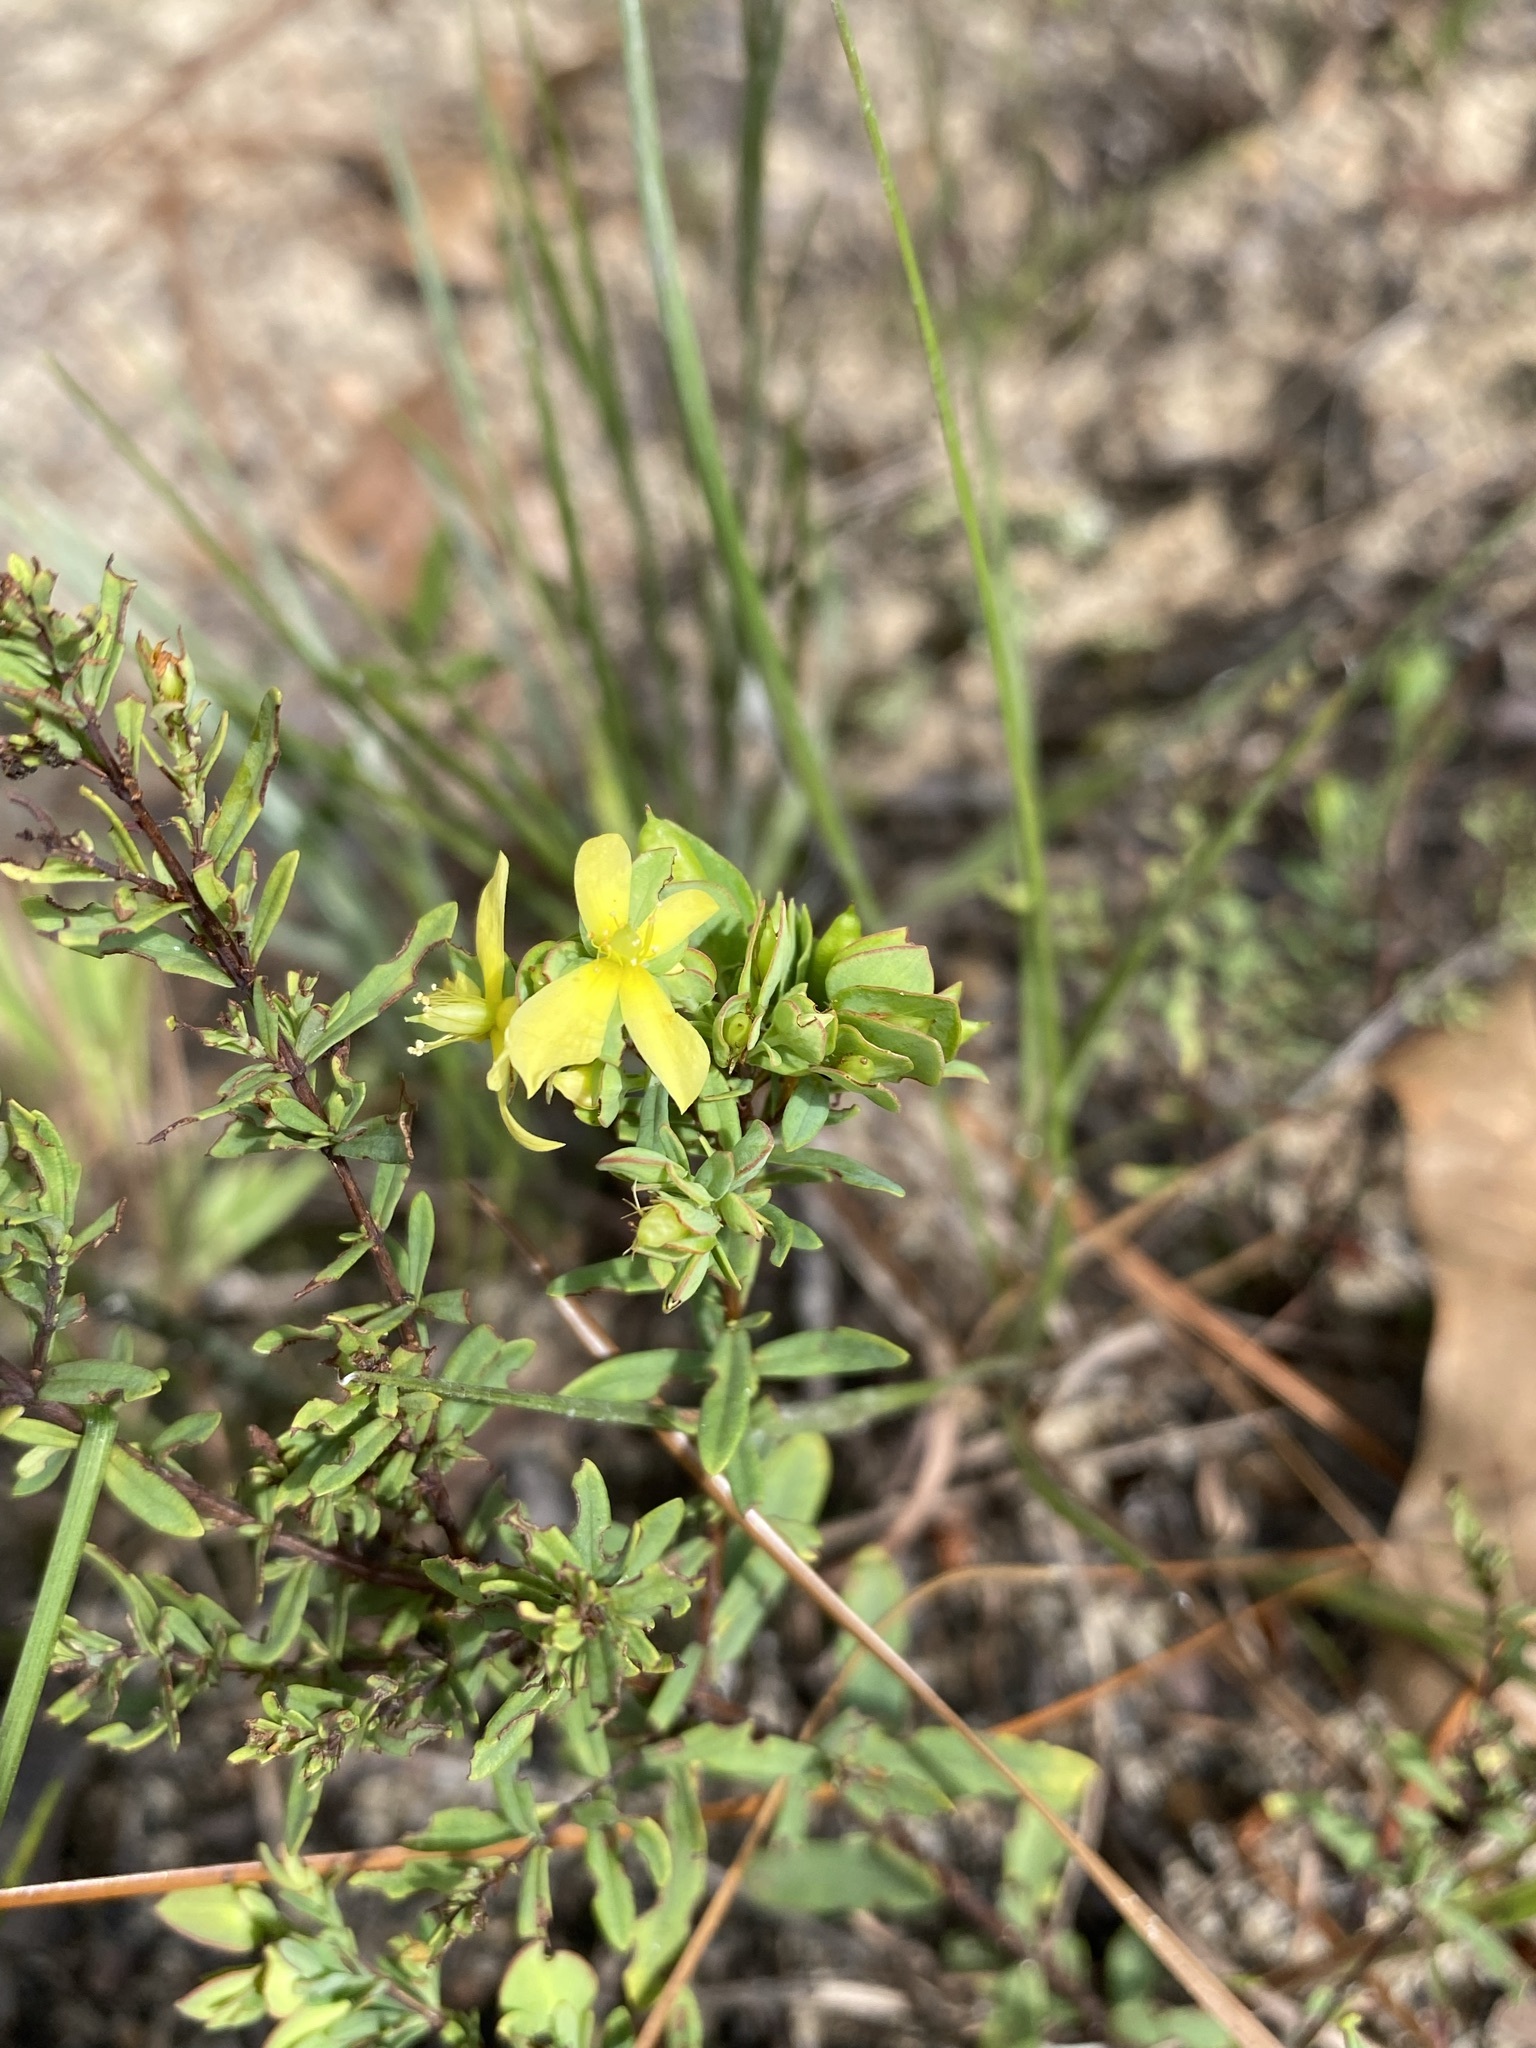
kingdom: Plantae
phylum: Tracheophyta
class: Magnoliopsida
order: Malpighiales
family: Hypericaceae
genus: Hypericum
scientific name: Hypericum hypericoides
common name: St. andrew's cross
